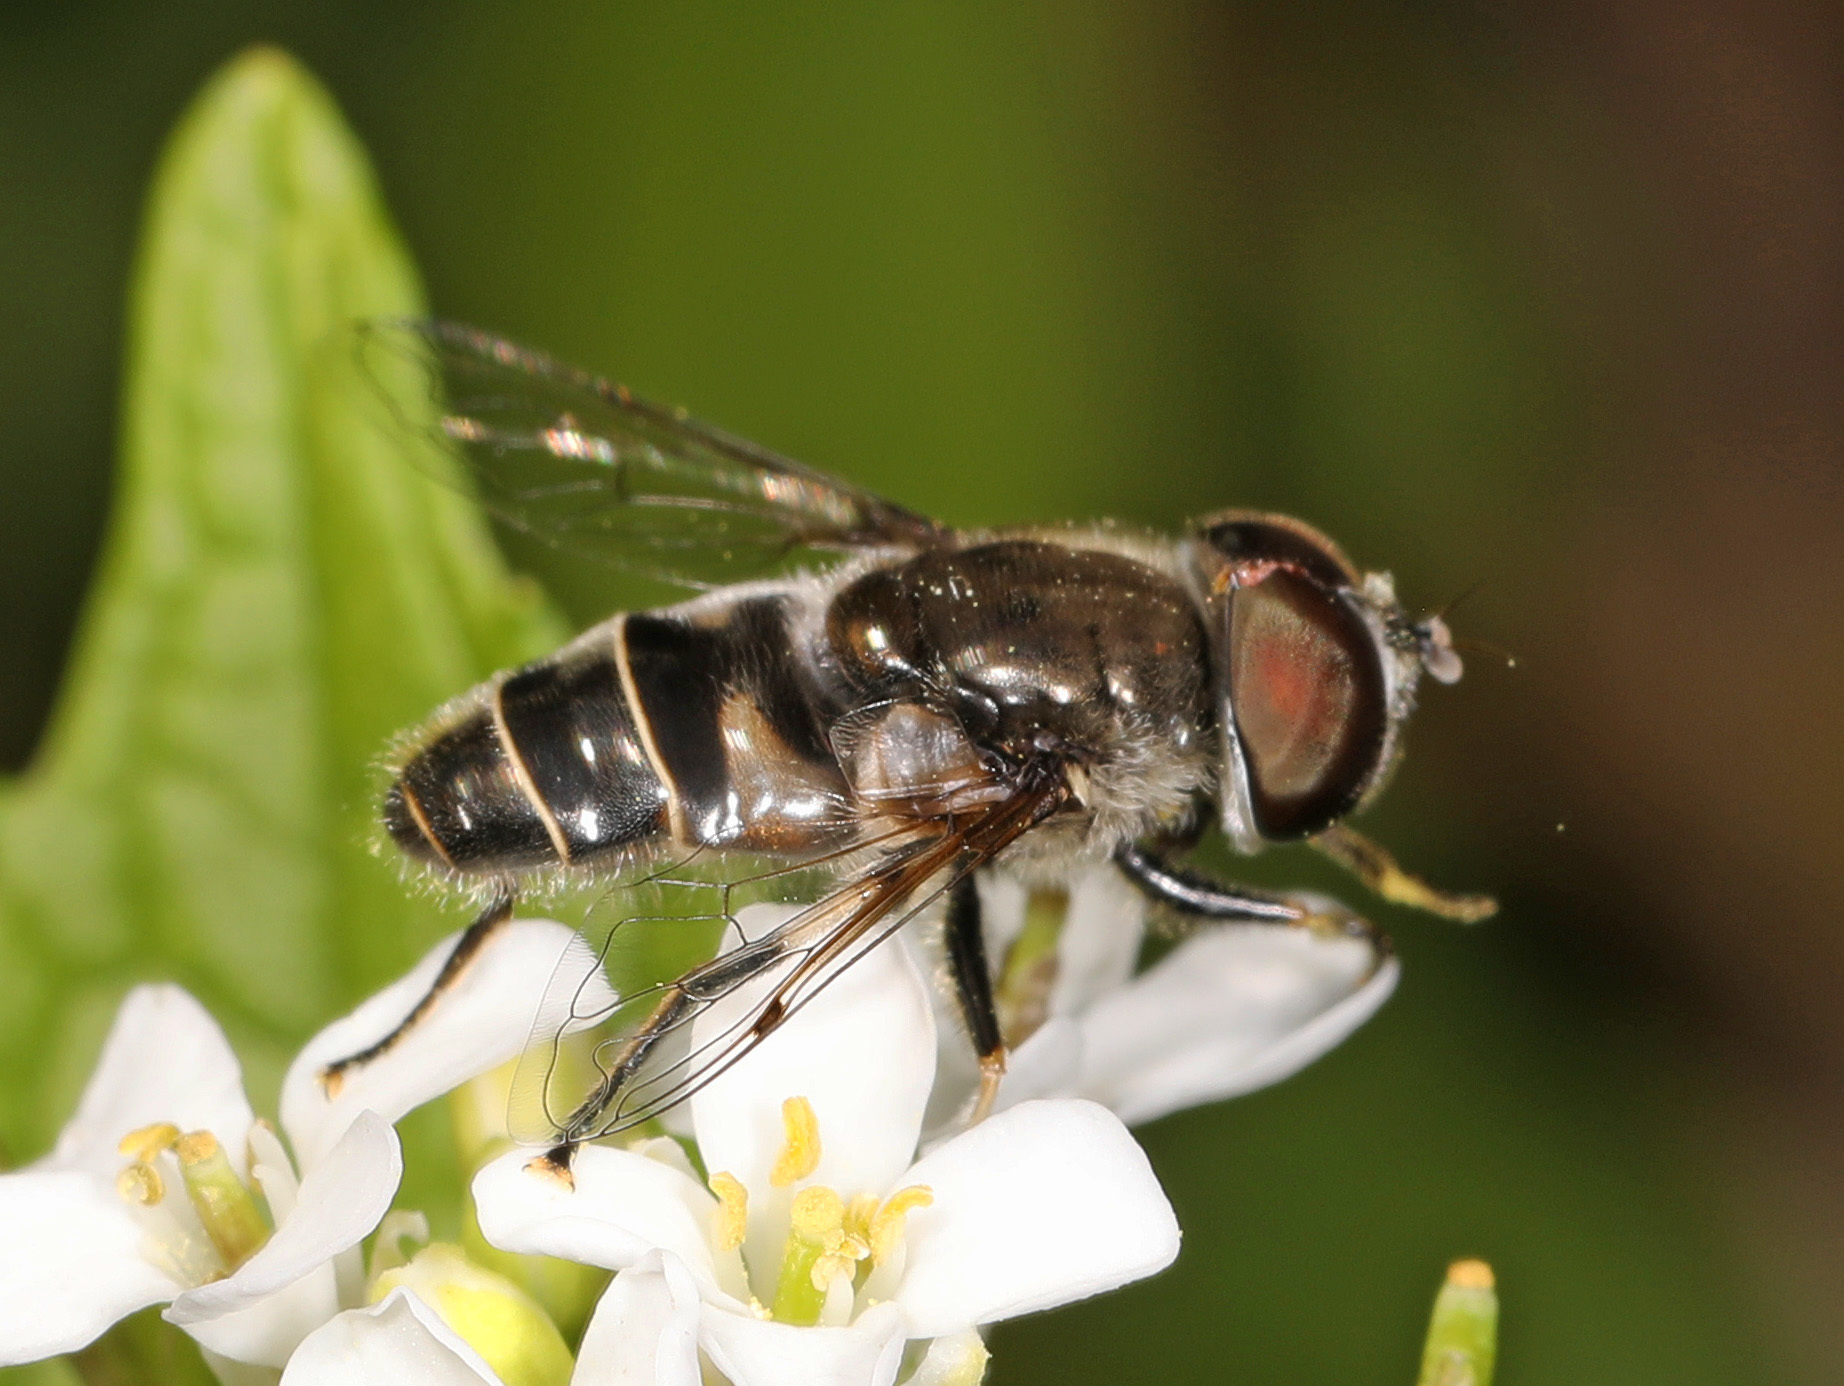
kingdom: Animalia
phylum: Arthropoda
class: Insecta
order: Diptera
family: Syrphidae
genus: Eristalis
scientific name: Eristalis dimidiata
